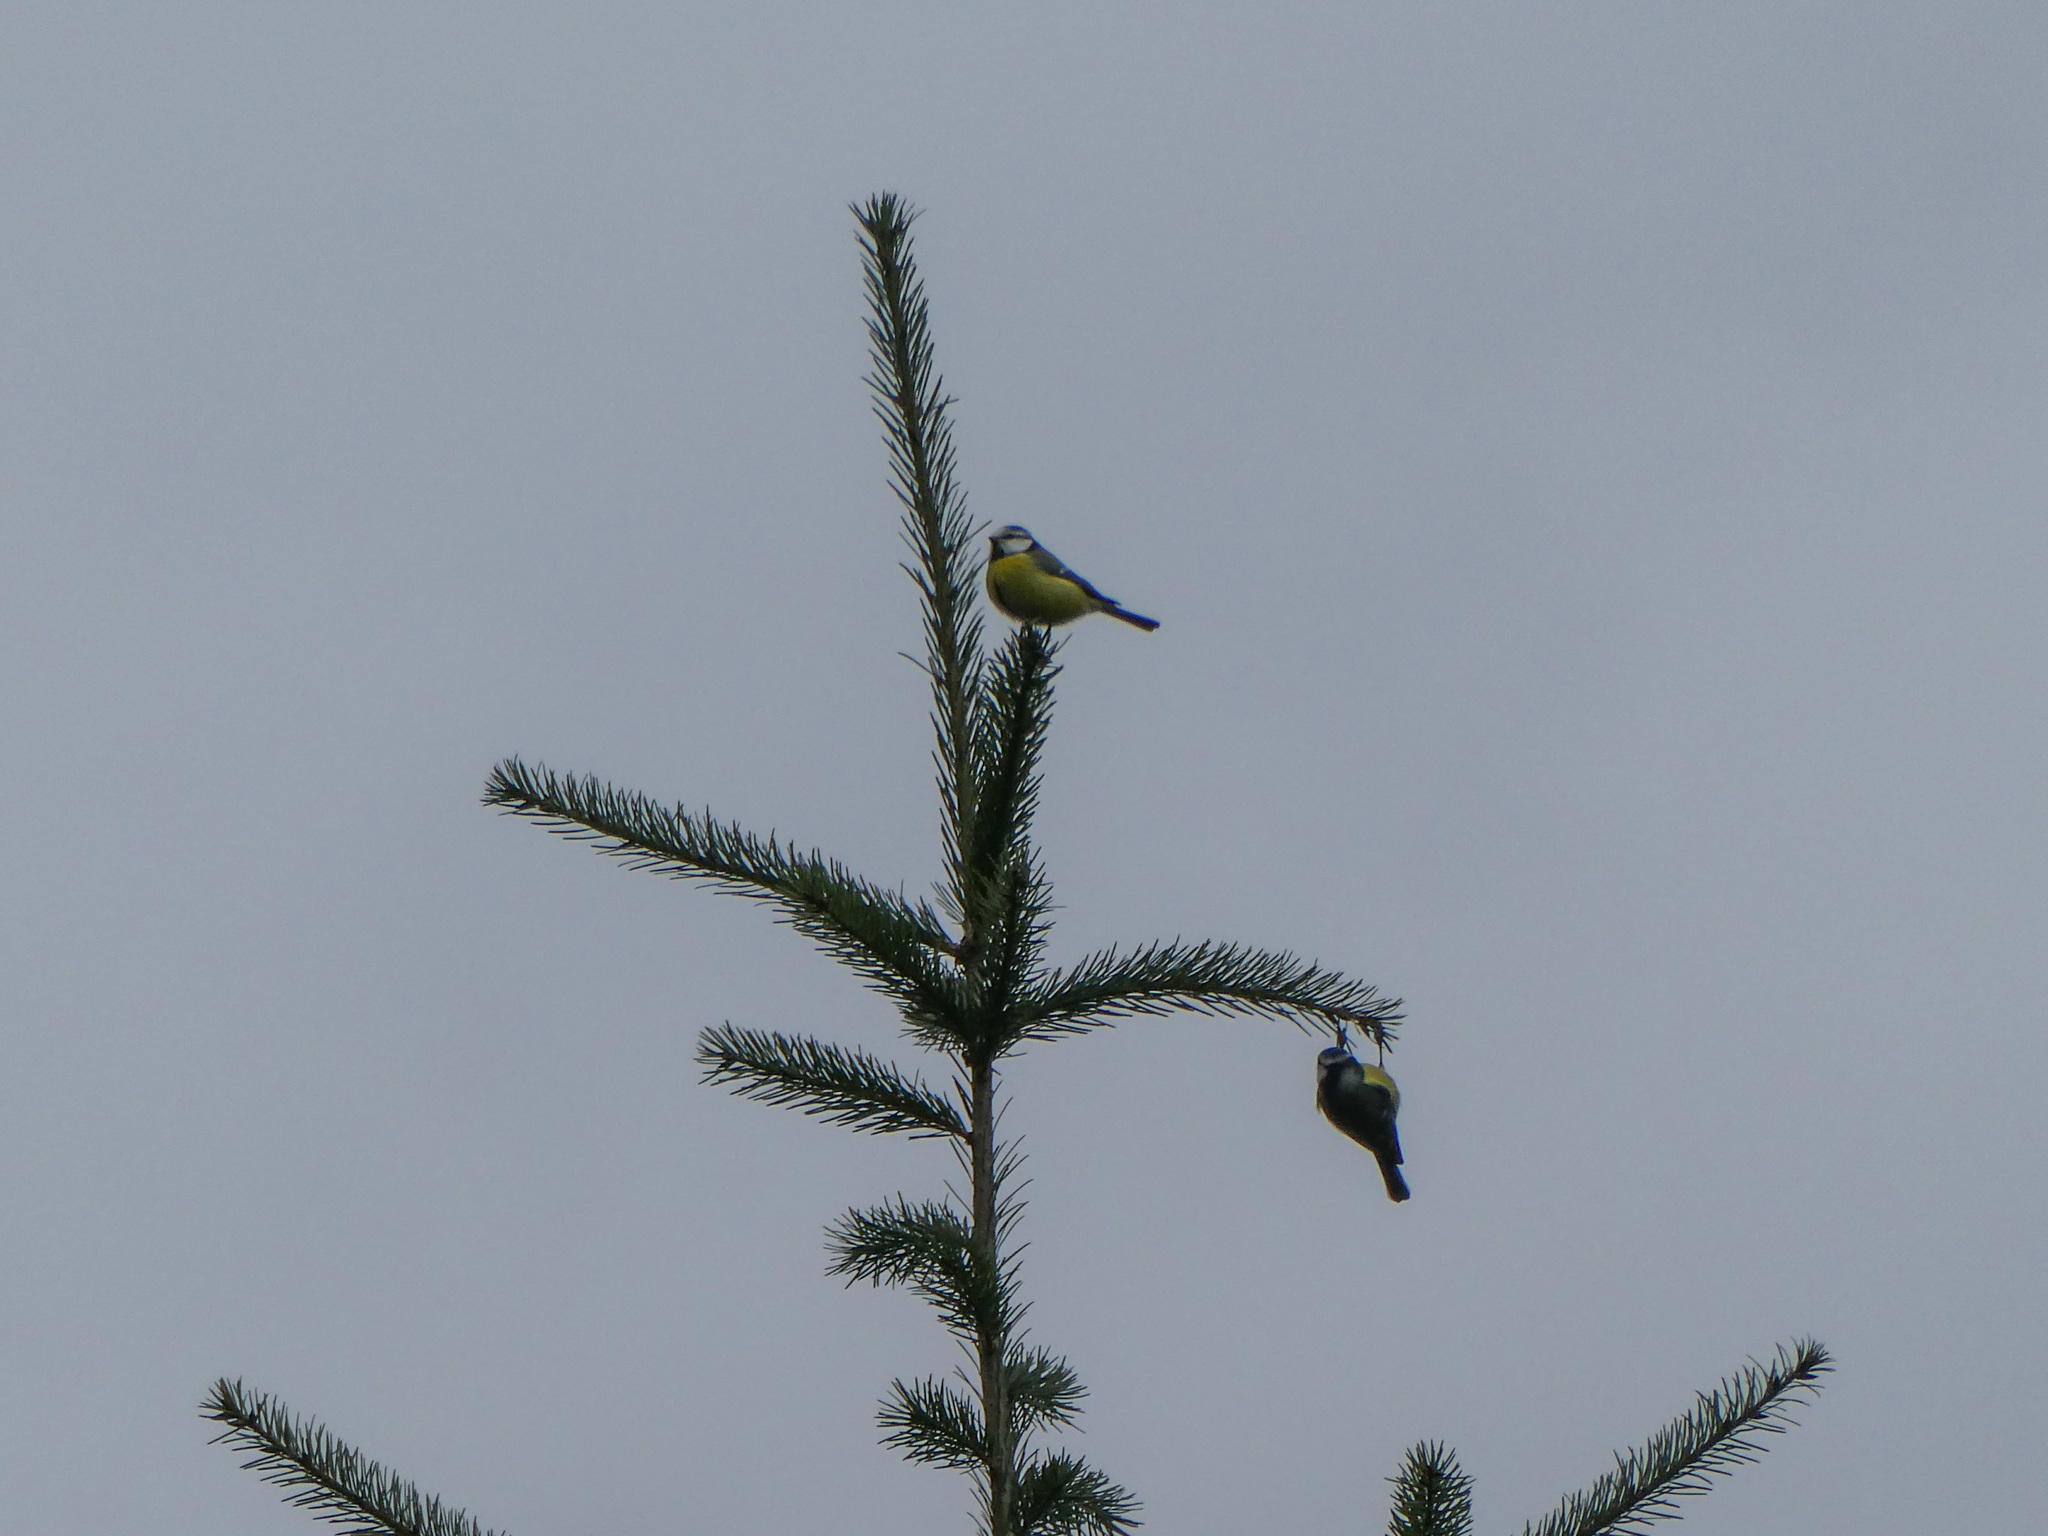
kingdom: Animalia
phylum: Chordata
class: Aves
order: Passeriformes
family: Paridae
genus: Cyanistes
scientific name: Cyanistes caeruleus
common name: Eurasian blue tit
